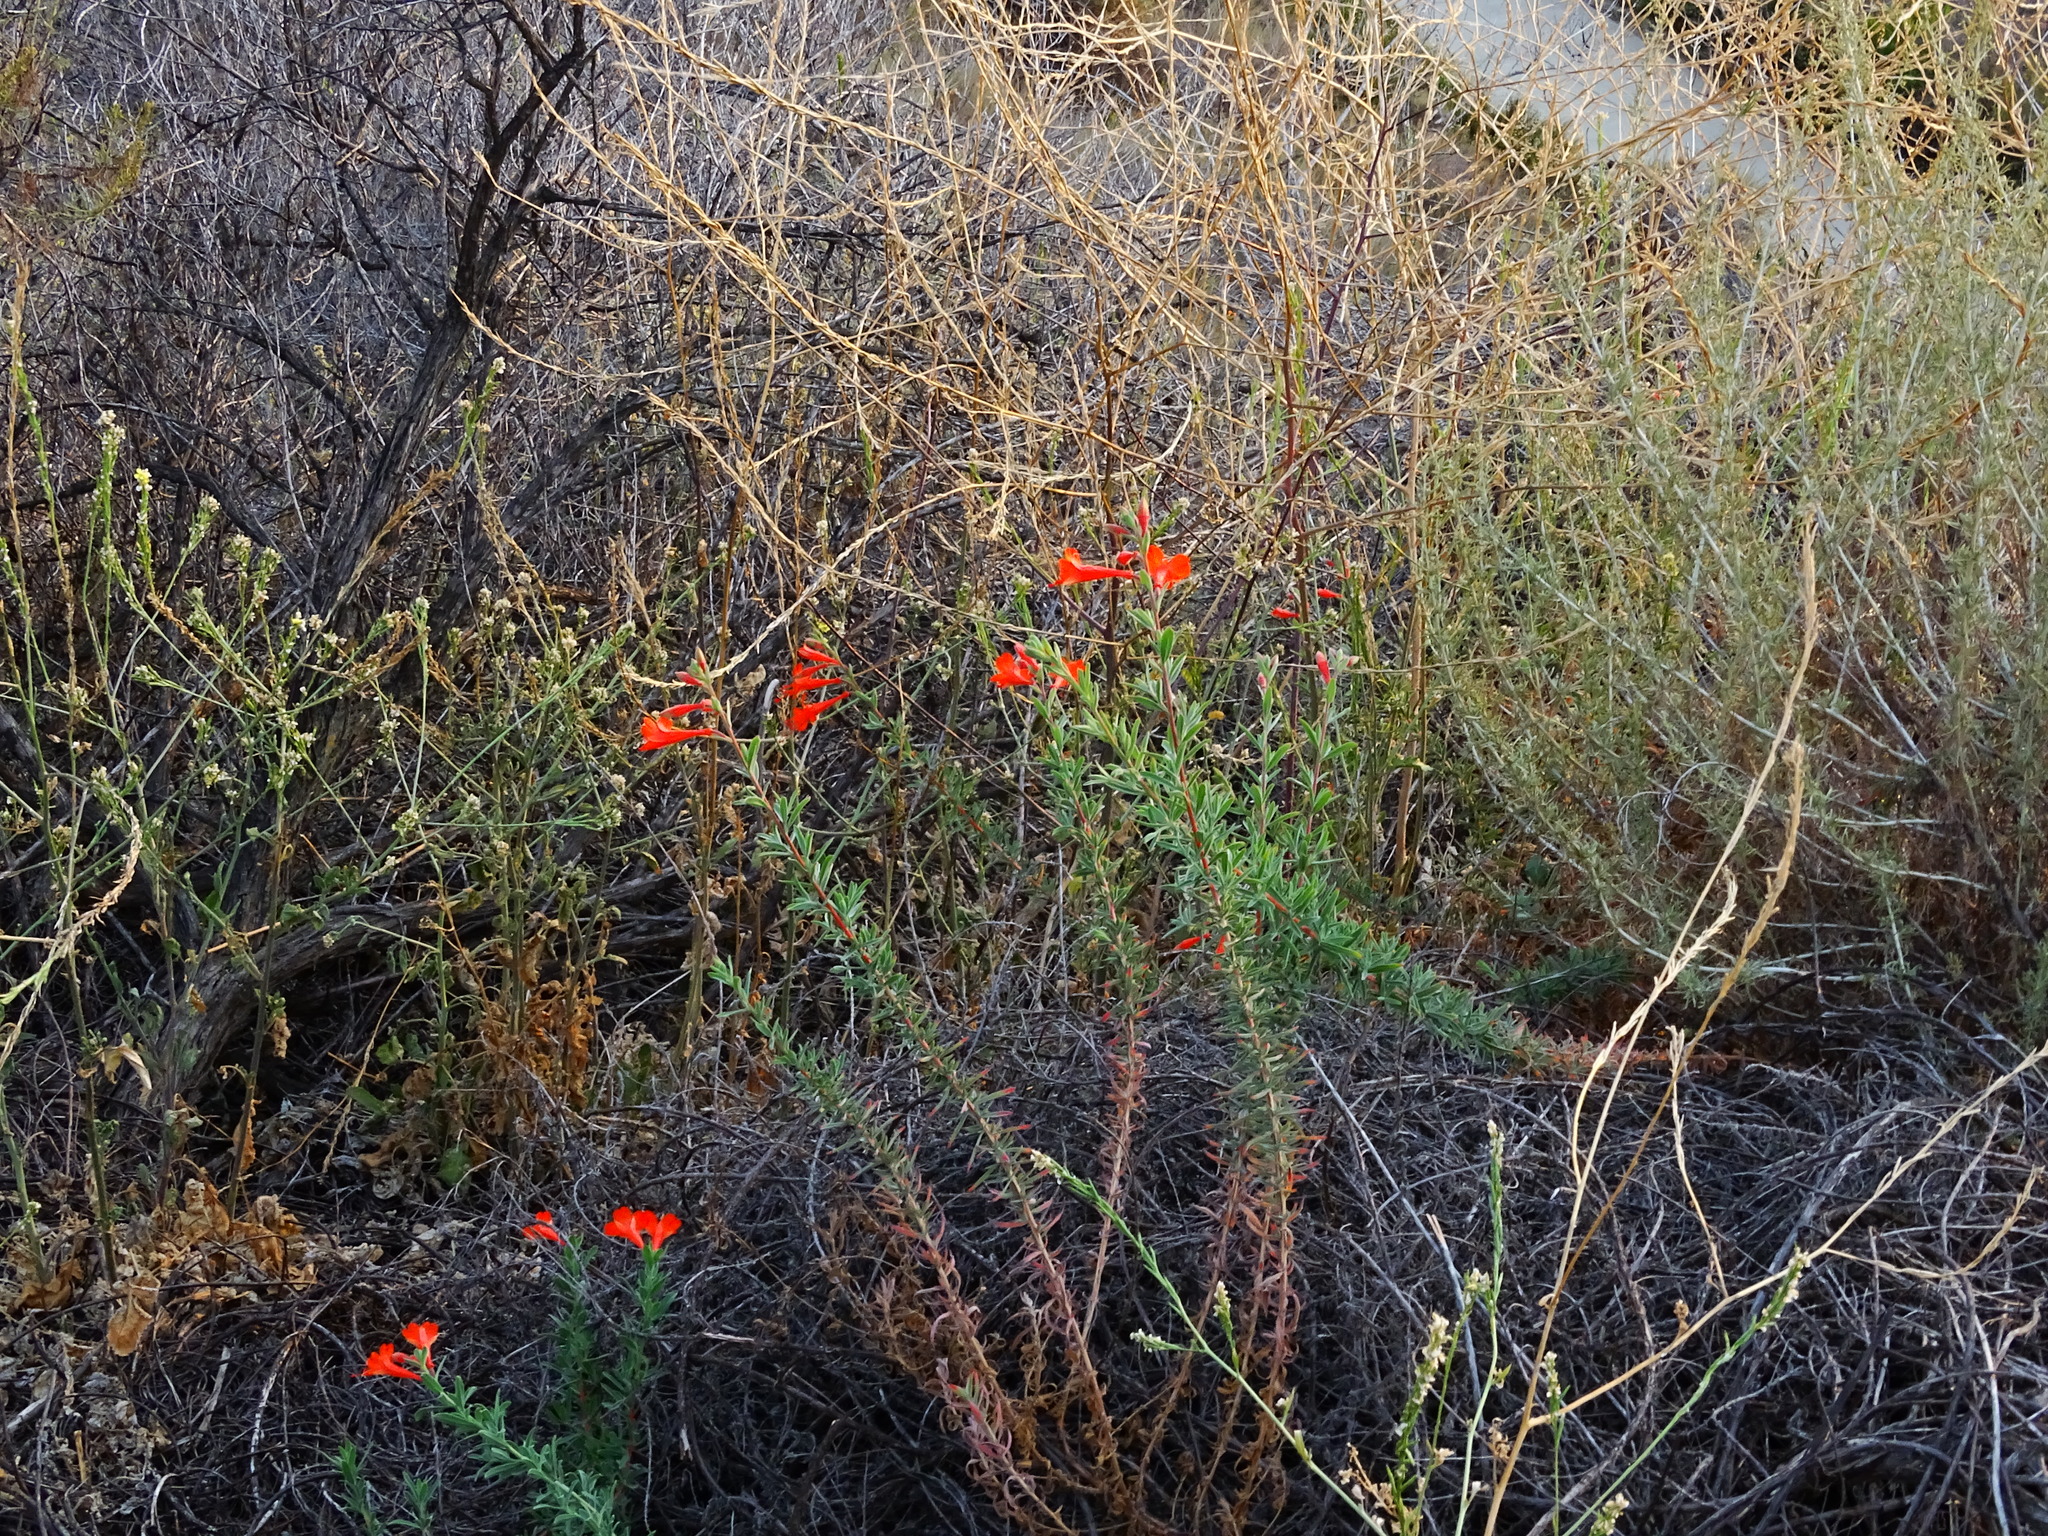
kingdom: Plantae
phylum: Tracheophyta
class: Magnoliopsida
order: Myrtales
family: Onagraceae
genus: Epilobium
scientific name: Epilobium canum
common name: California-fuchsia
